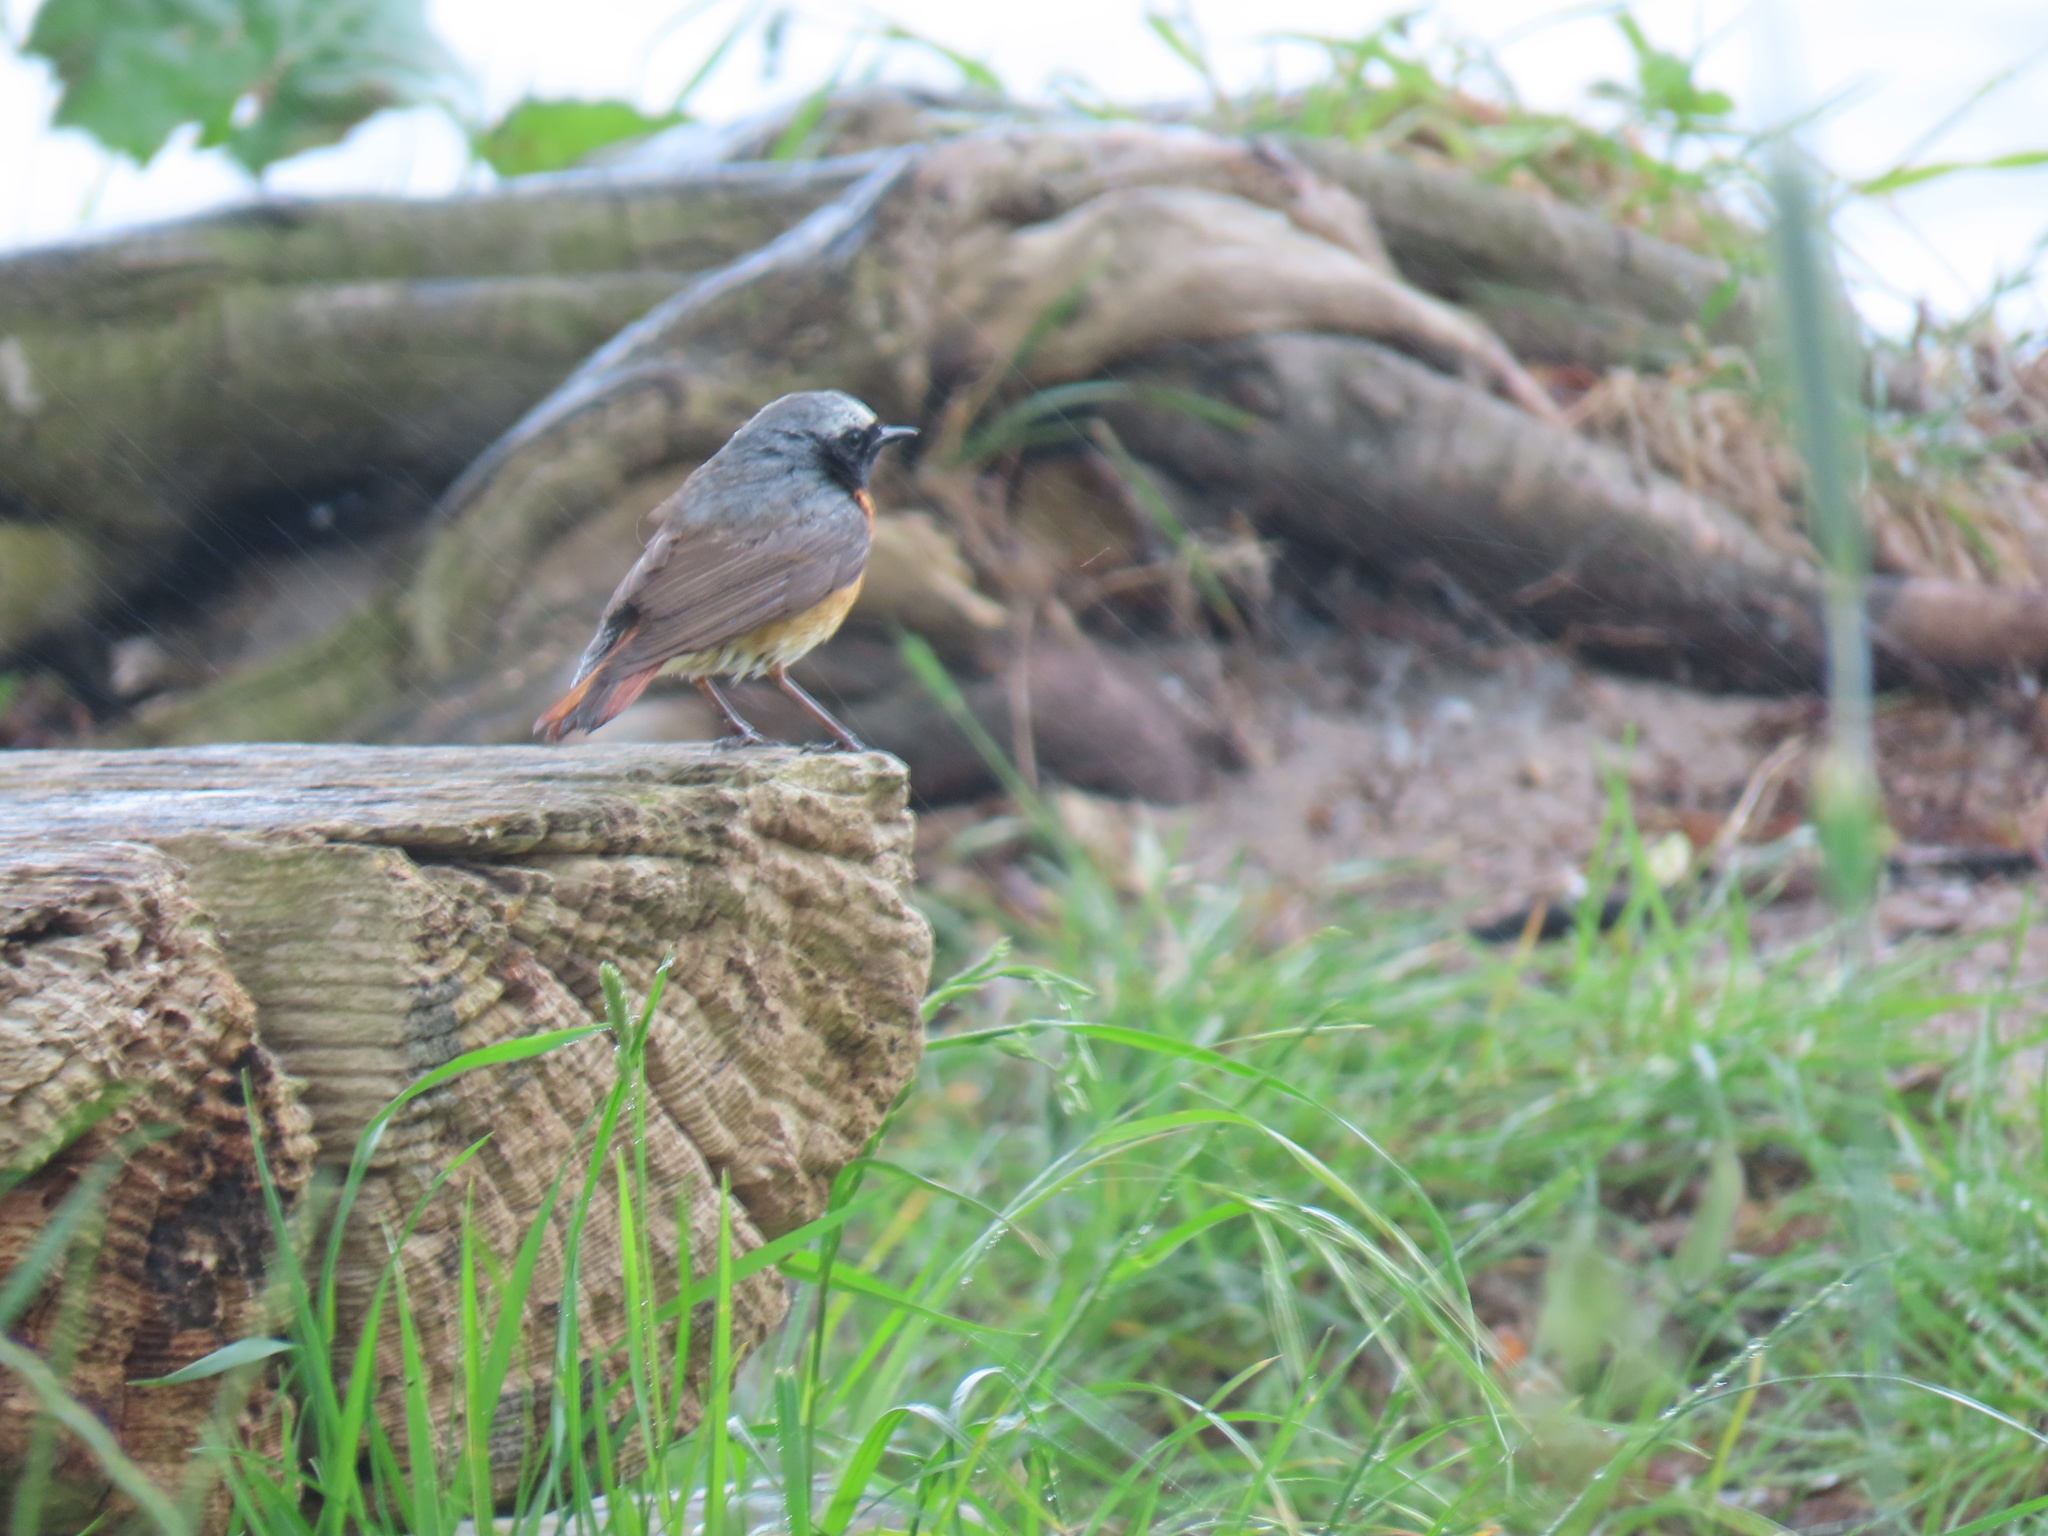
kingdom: Animalia
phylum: Chordata
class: Aves
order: Passeriformes
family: Muscicapidae
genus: Phoenicurus
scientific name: Phoenicurus phoenicurus
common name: Common redstart
